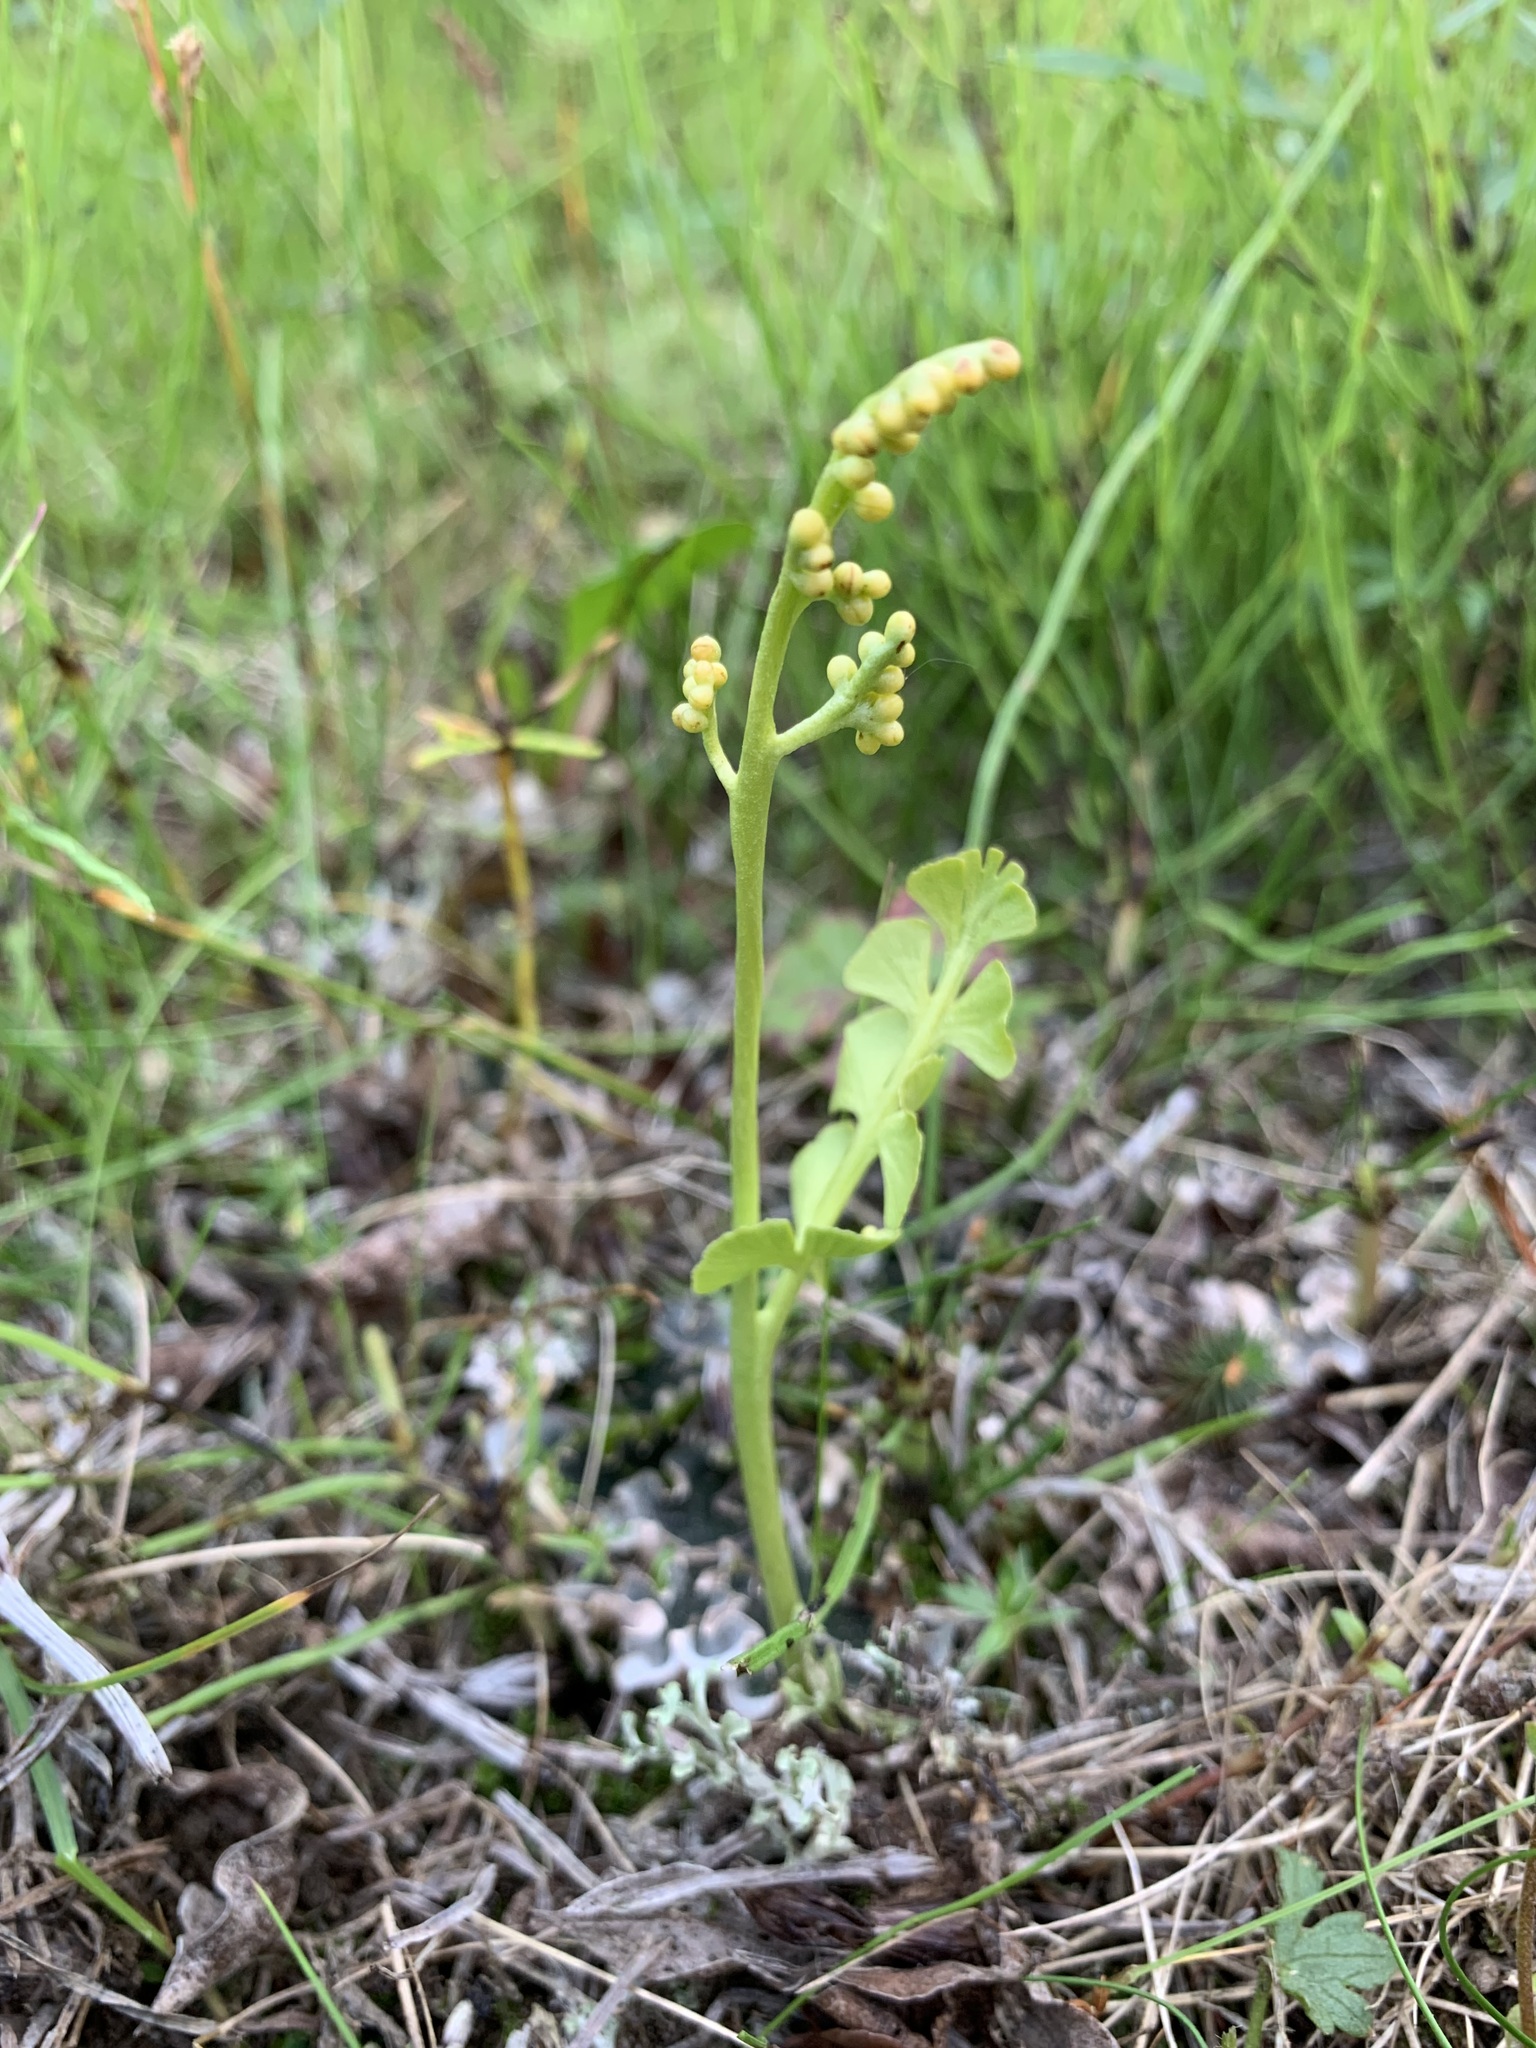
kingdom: Plantae
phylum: Tracheophyta
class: Polypodiopsida
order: Ophioglossales
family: Ophioglossaceae
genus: Botrychium
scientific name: Botrychium lunaria
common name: Moonwort
